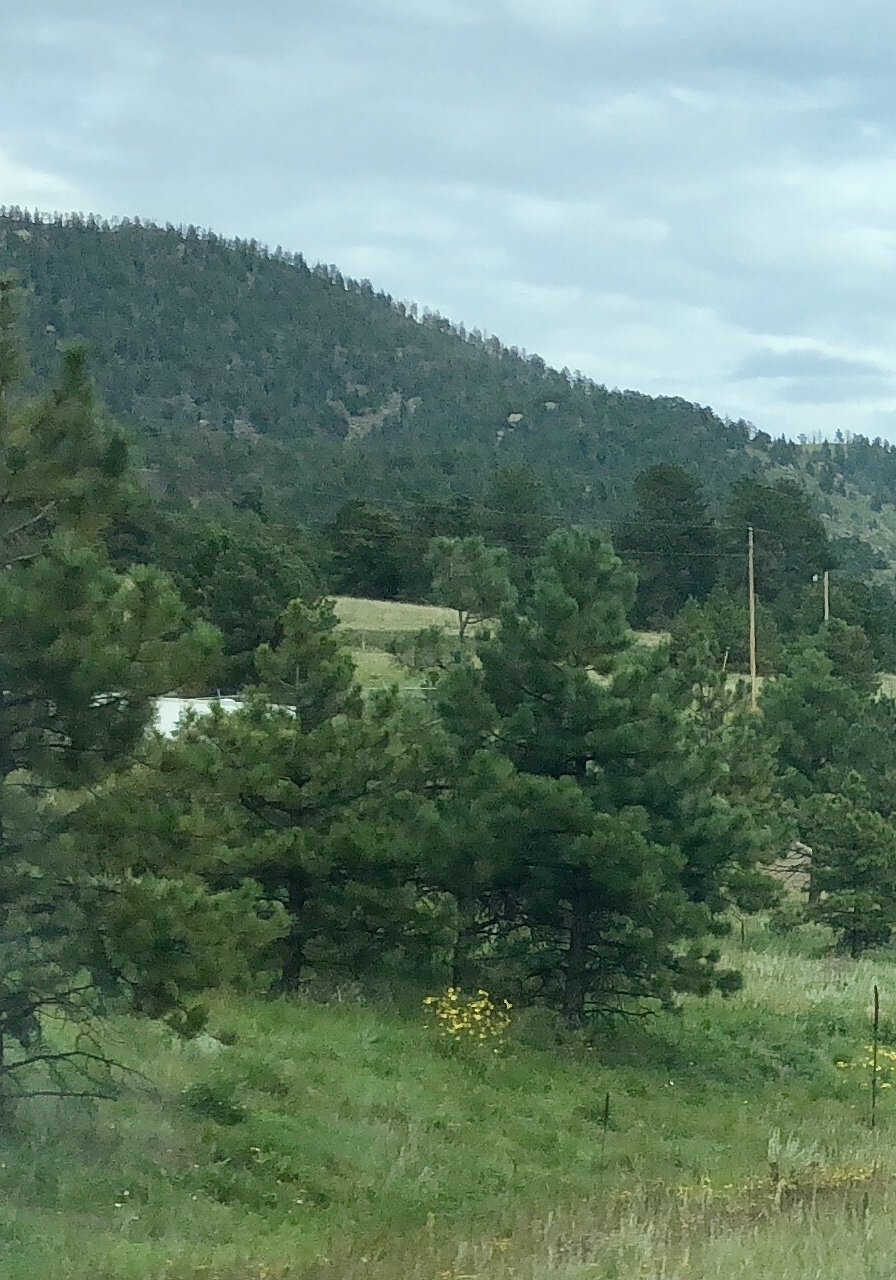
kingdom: Plantae
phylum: Tracheophyta
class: Pinopsida
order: Pinales
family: Pinaceae
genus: Pinus
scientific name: Pinus ponderosa
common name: Western yellow-pine
